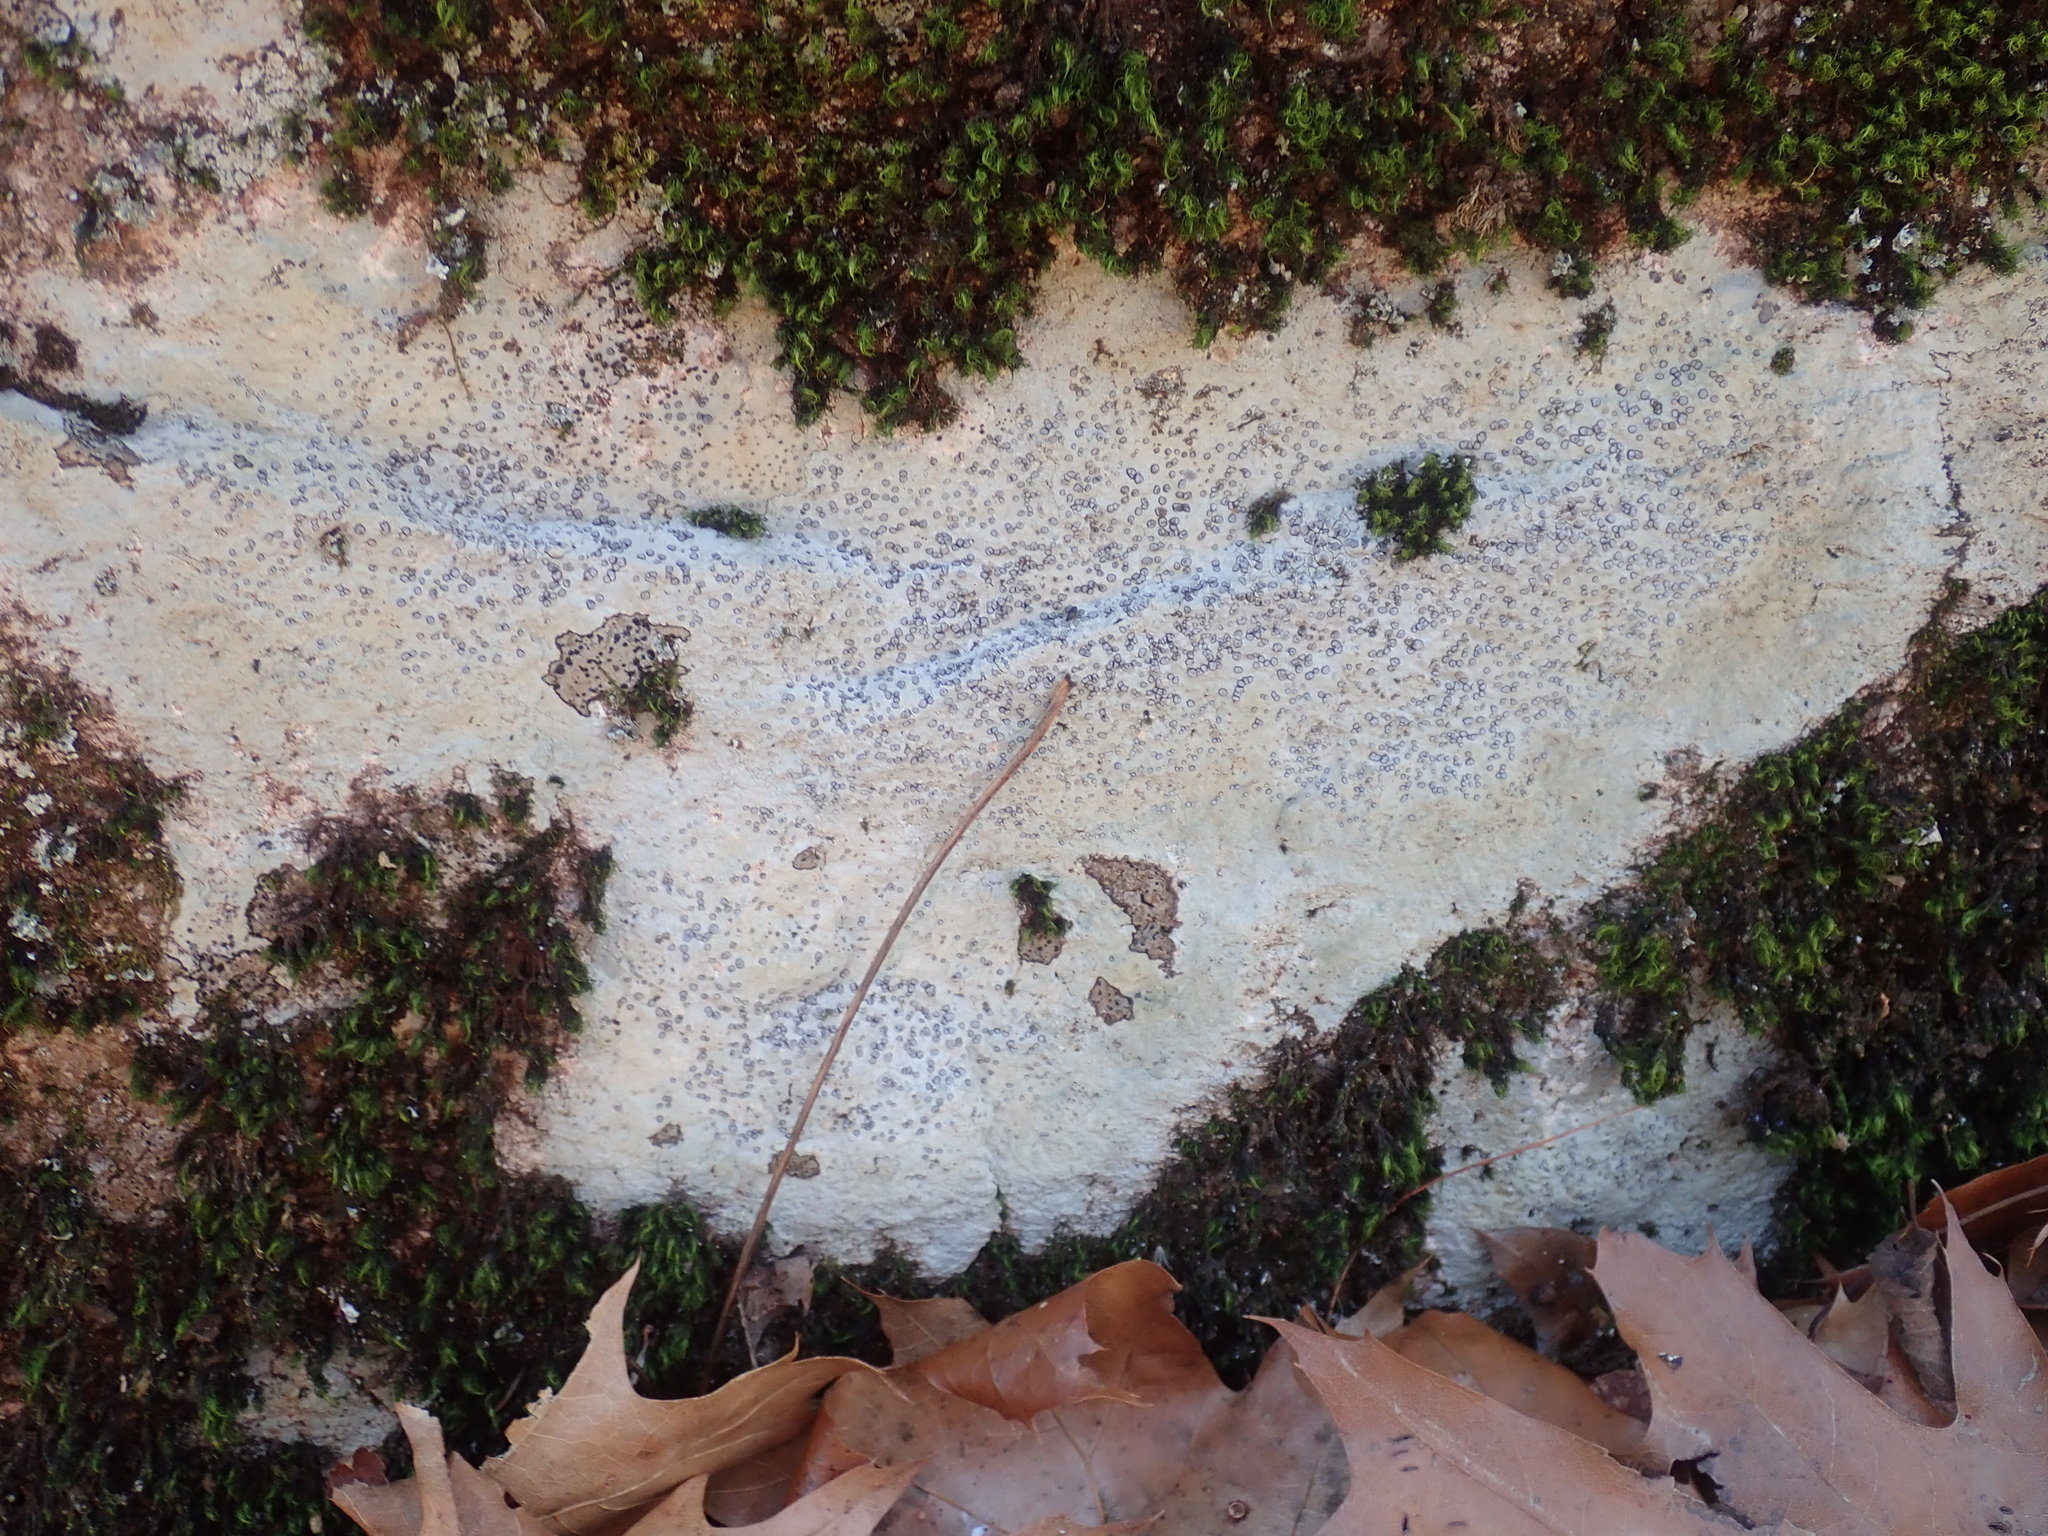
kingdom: Fungi
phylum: Ascomycota
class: Lecanoromycetes
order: Lecideales
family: Lecideaceae
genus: Porpidia
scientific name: Porpidia albocaerulescens
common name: Smokey-eyed boulder lichen
